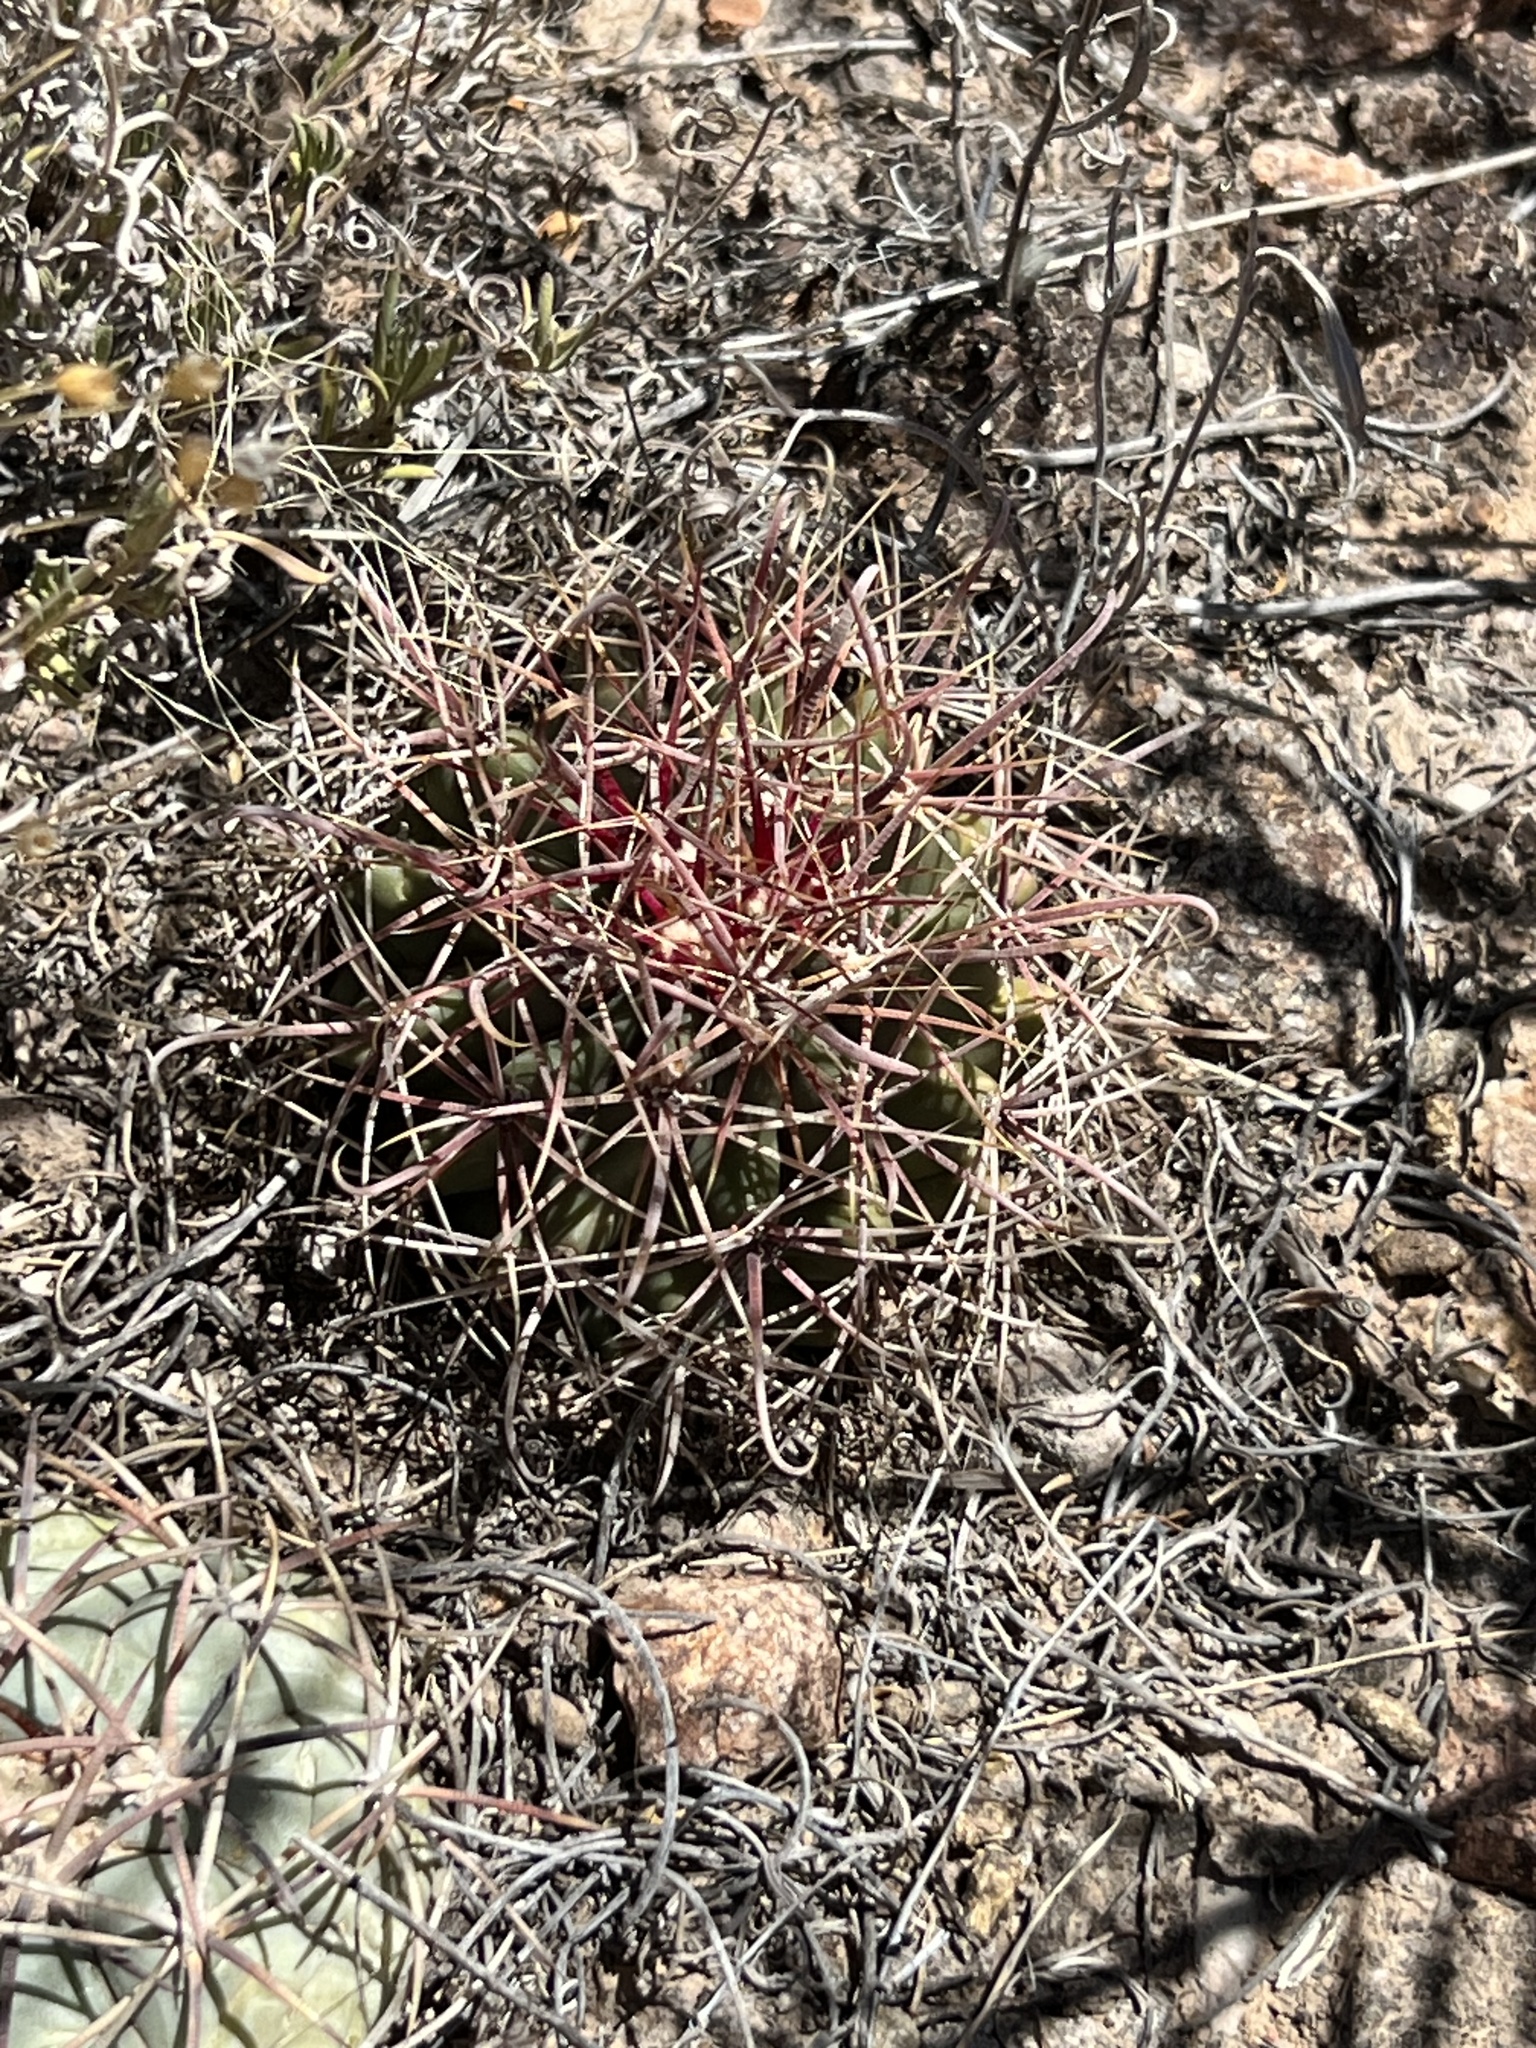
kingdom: Plantae
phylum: Tracheophyta
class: Magnoliopsida
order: Caryophyllales
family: Cactaceae
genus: Ferocactus
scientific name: Ferocactus wislizeni
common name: Candy barrel cactus
